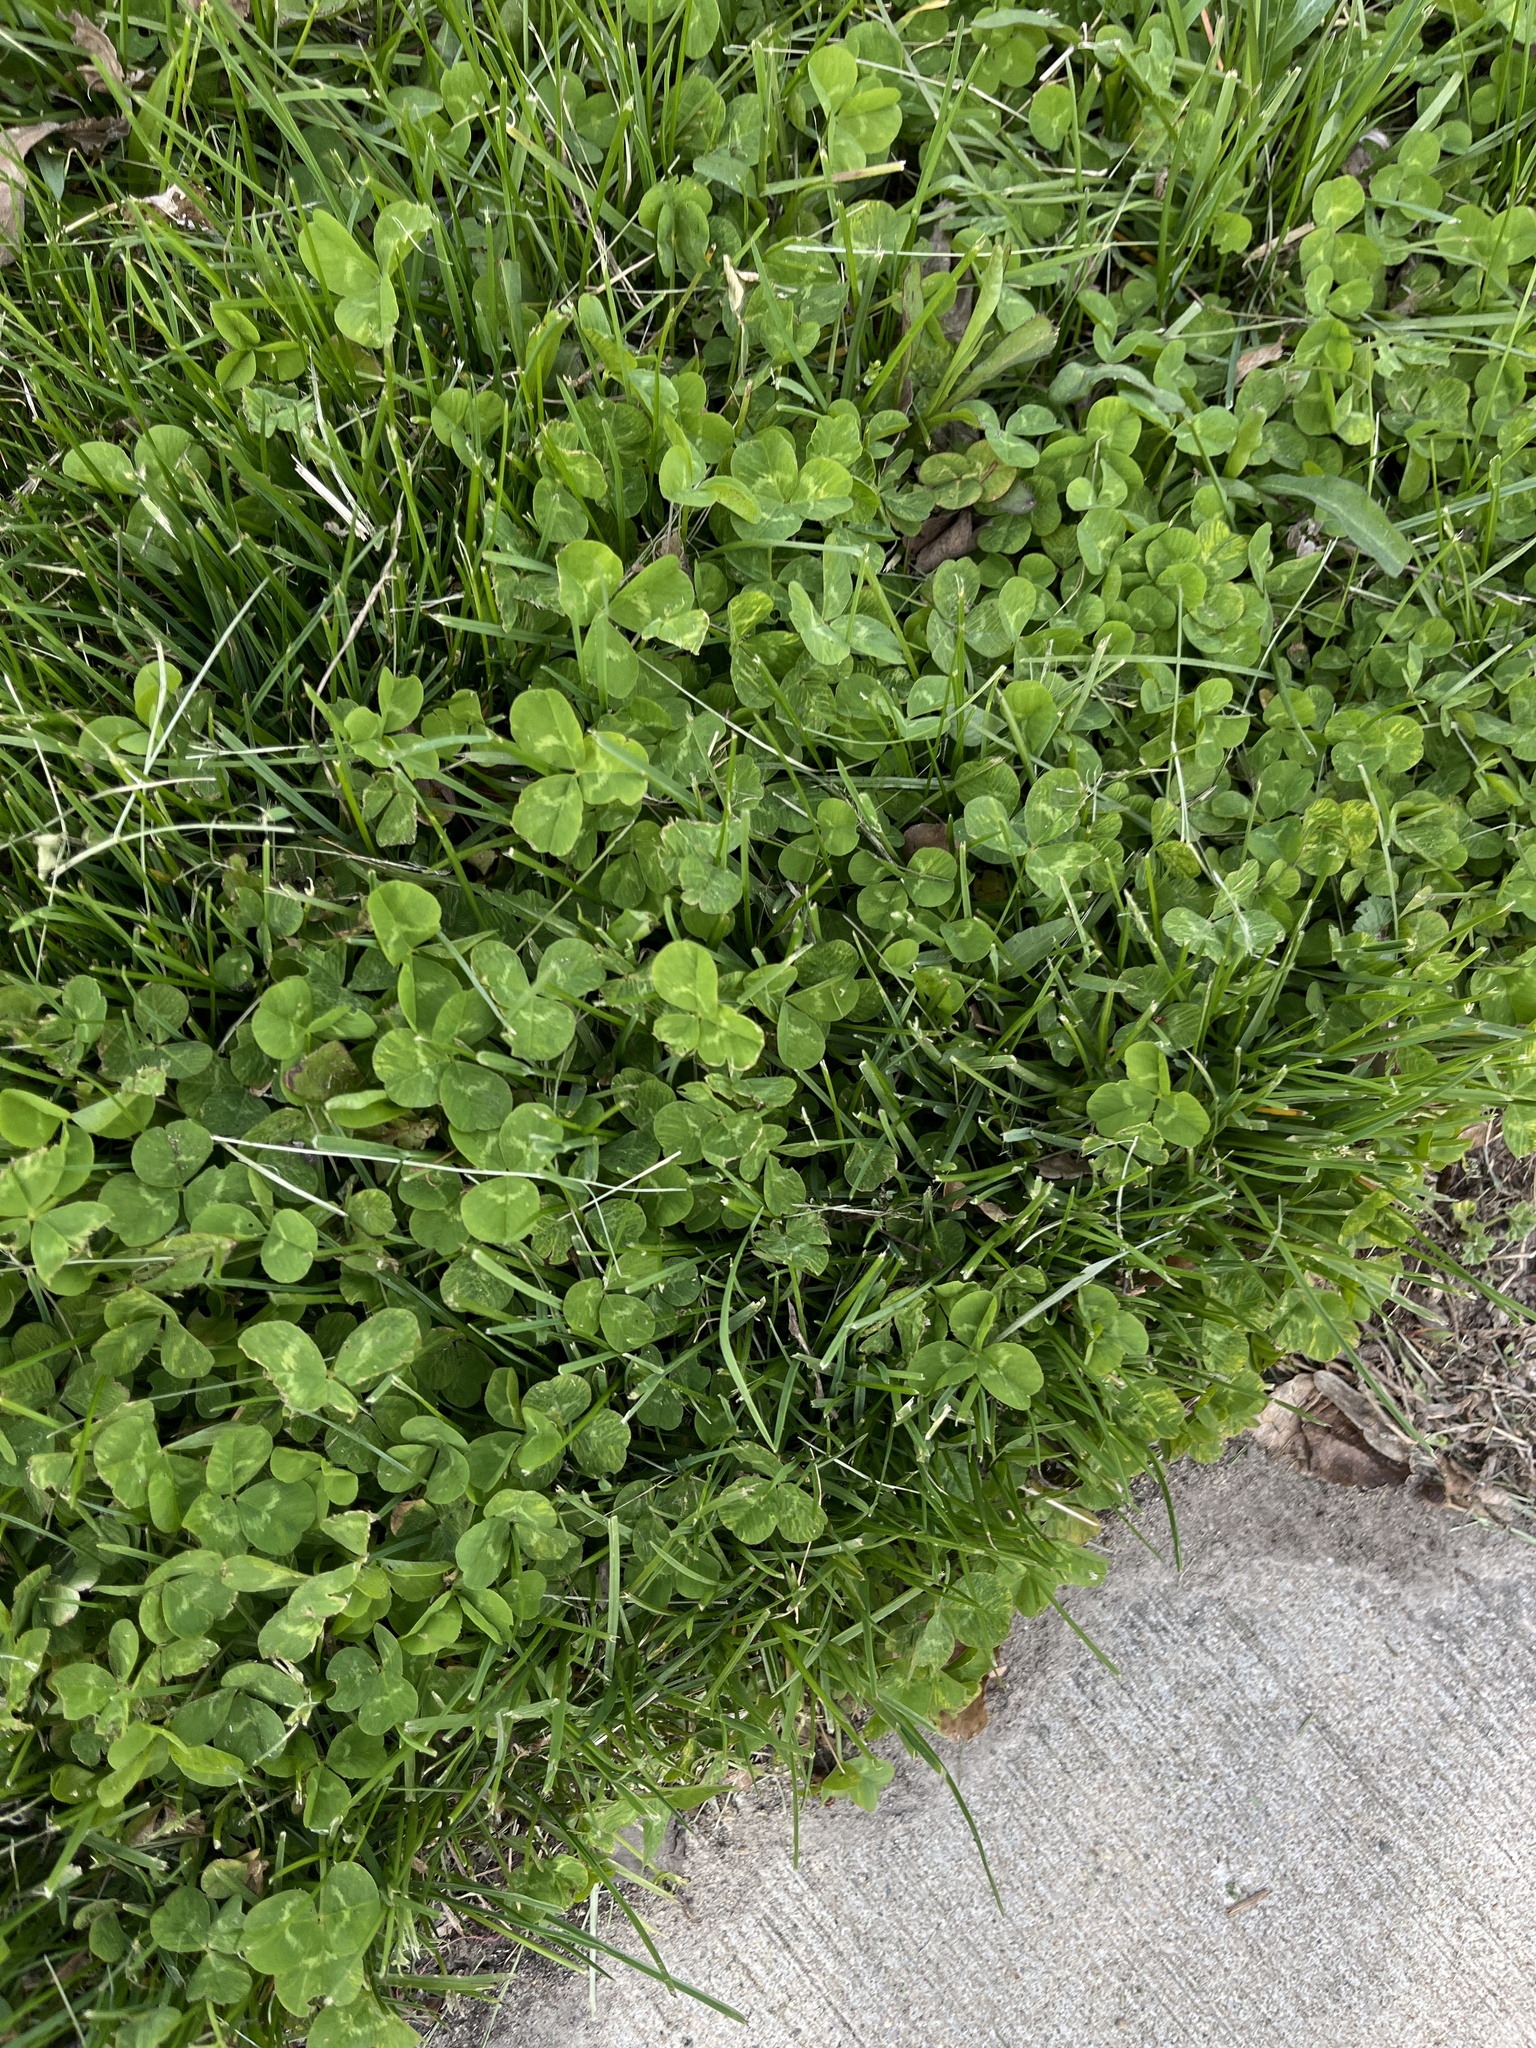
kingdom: Plantae
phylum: Tracheophyta
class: Magnoliopsida
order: Fabales
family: Fabaceae
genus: Trifolium
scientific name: Trifolium repens
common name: White clover
